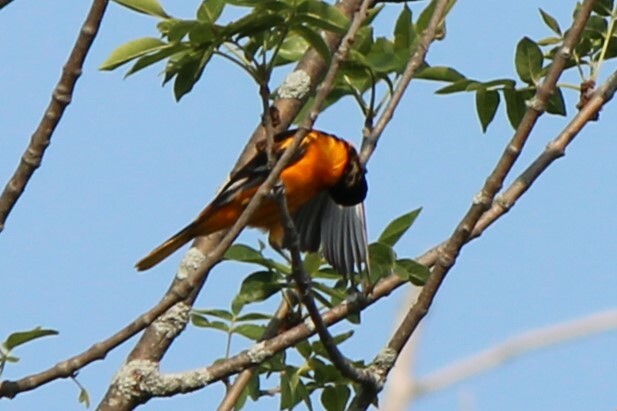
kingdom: Animalia
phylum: Chordata
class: Aves
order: Passeriformes
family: Icteridae
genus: Icterus
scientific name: Icterus galbula
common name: Baltimore oriole
